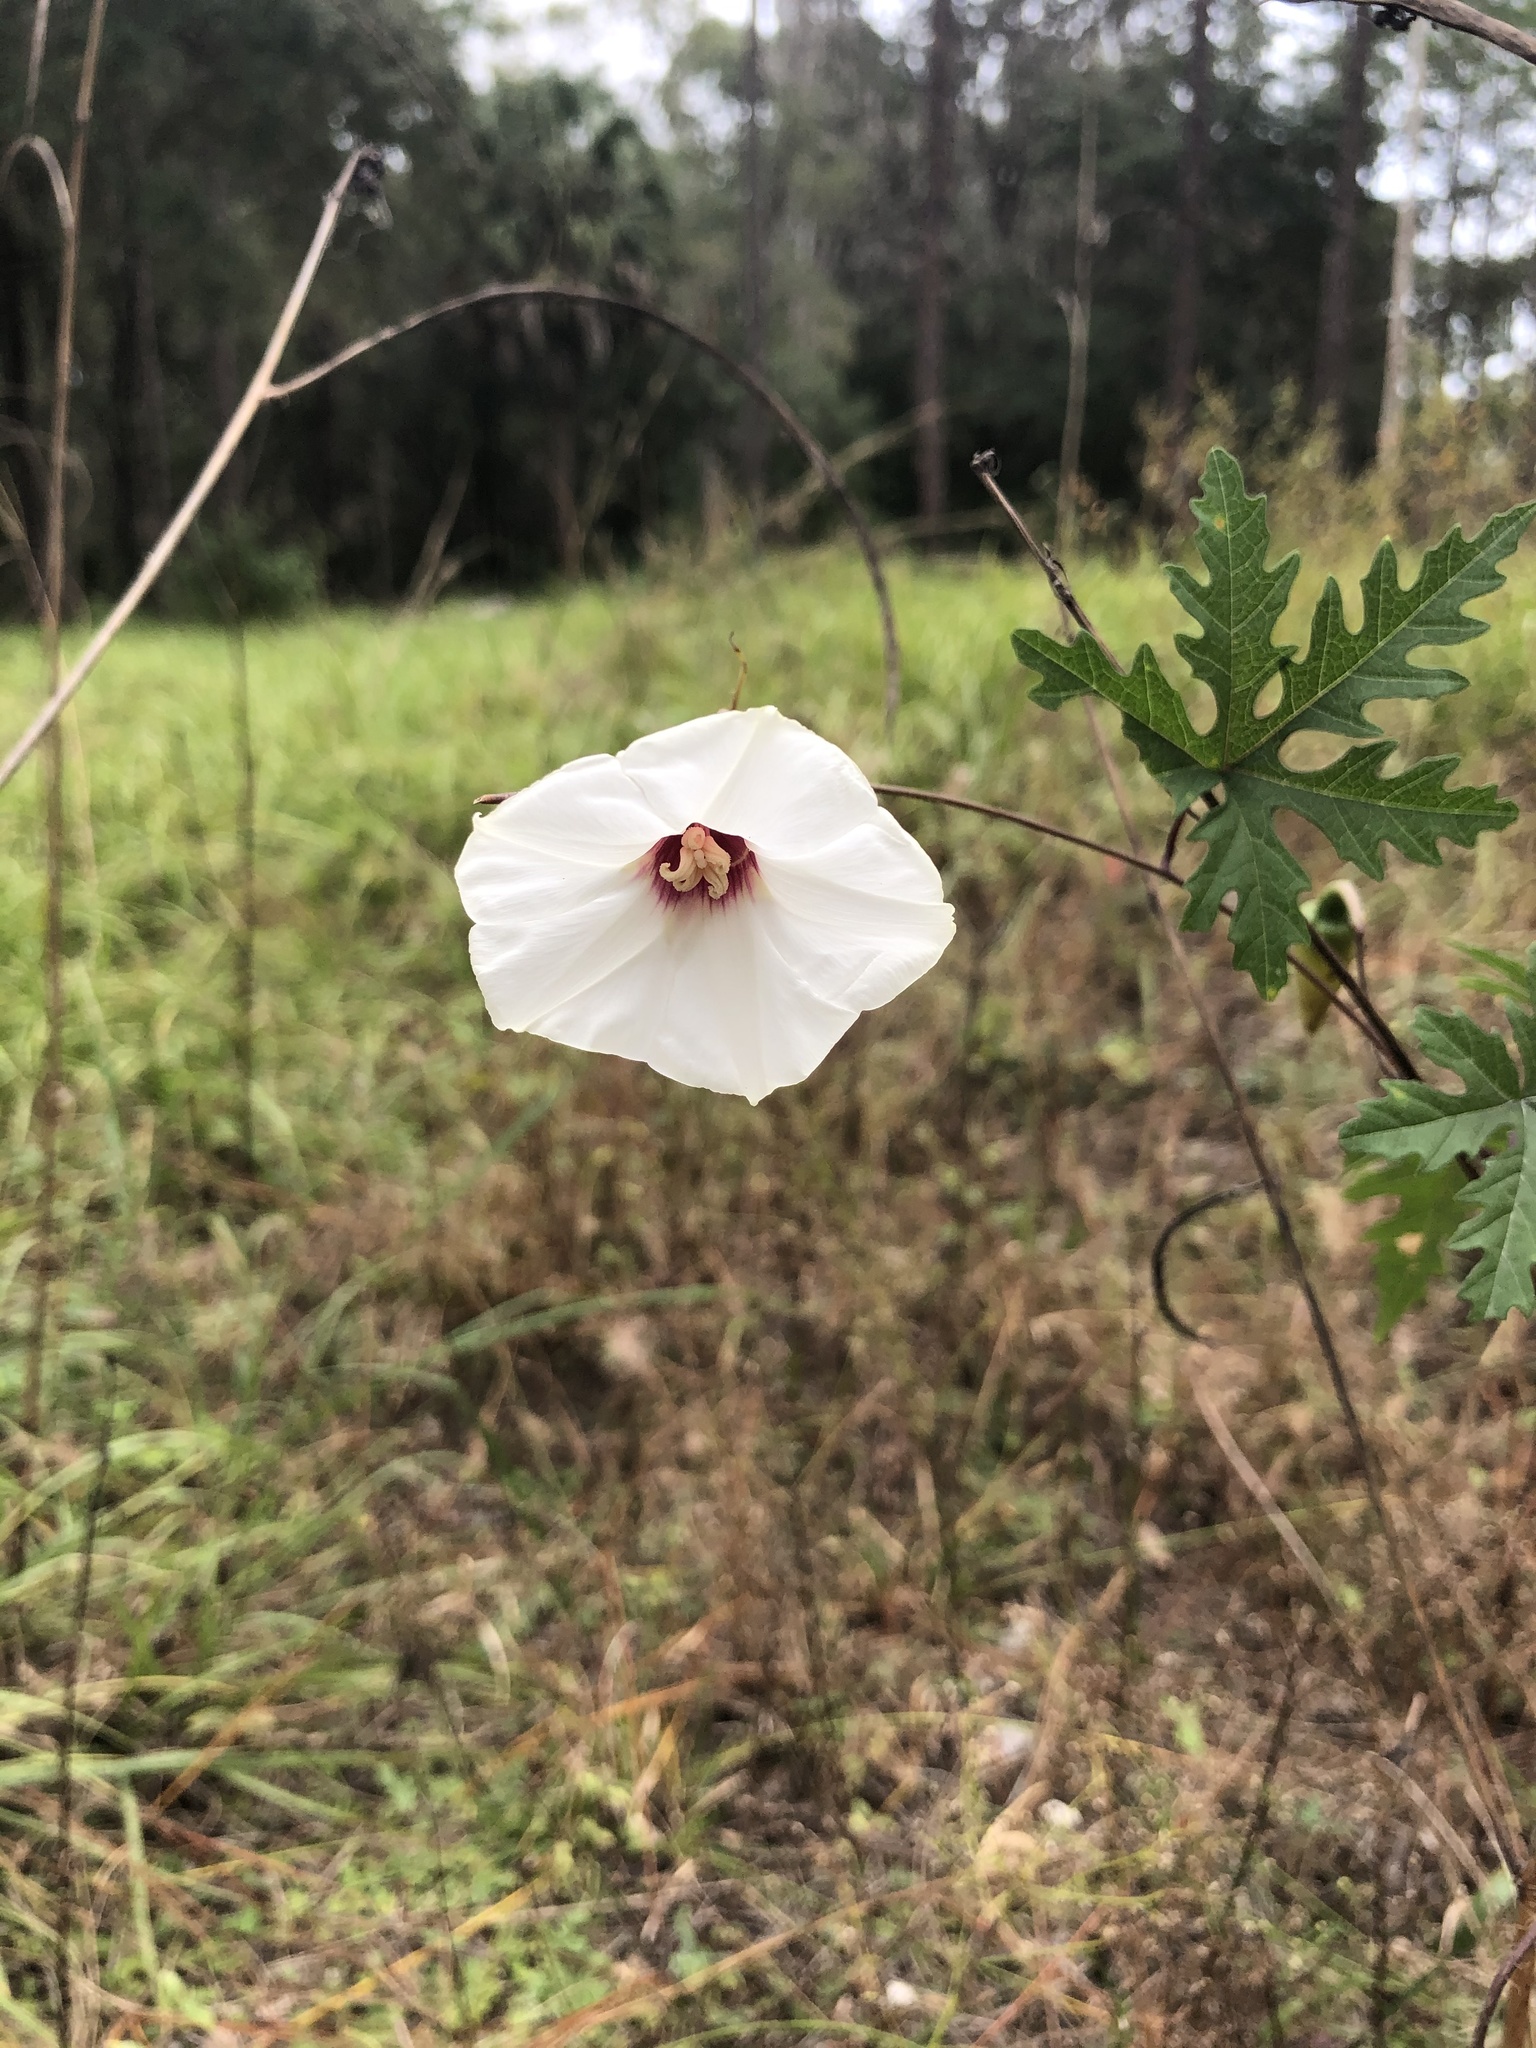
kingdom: Plantae
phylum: Tracheophyta
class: Magnoliopsida
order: Solanales
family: Convolvulaceae
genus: Distimake
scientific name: Distimake dissectus
